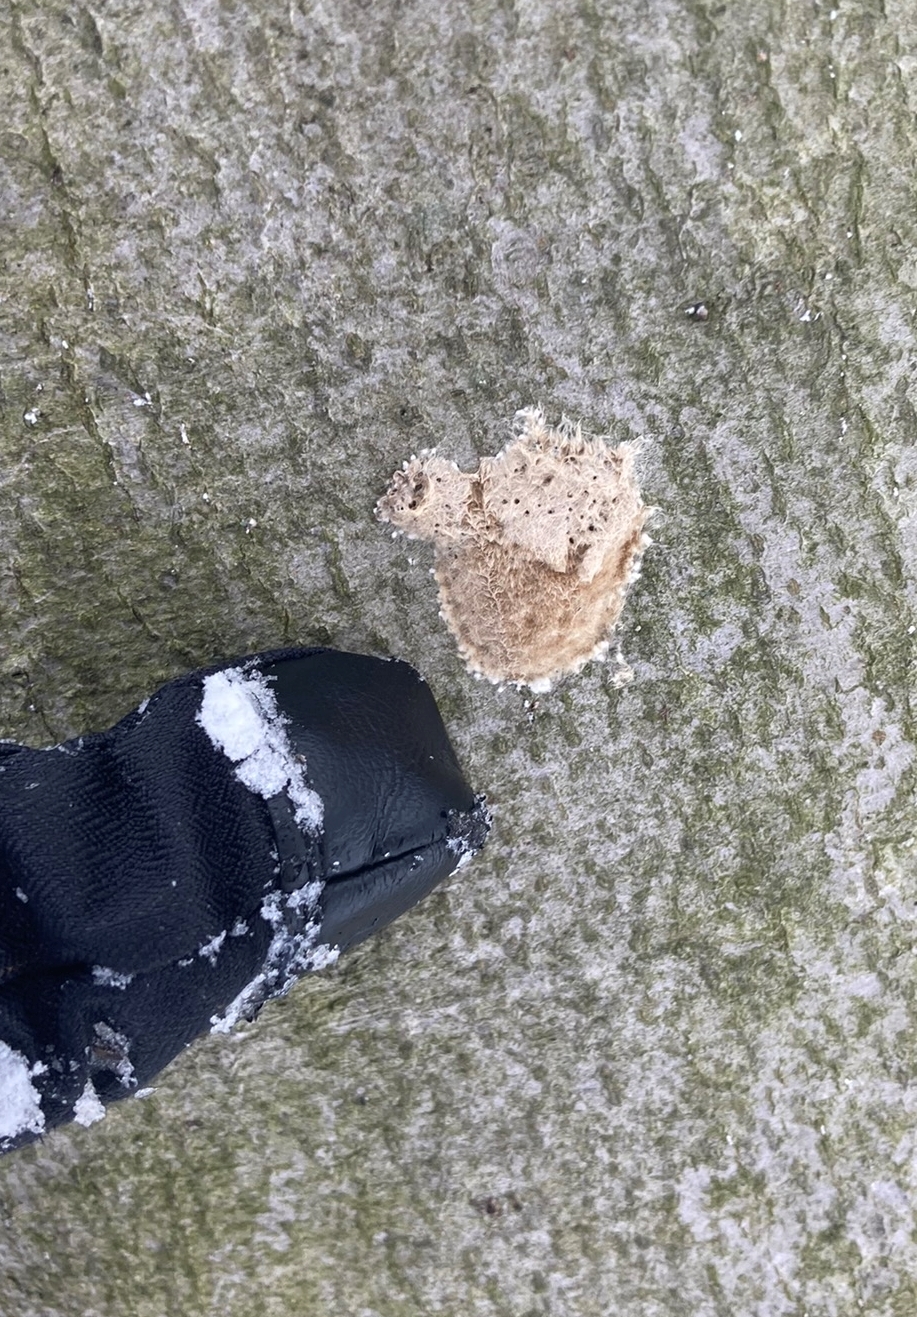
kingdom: Animalia
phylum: Arthropoda
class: Insecta
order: Lepidoptera
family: Erebidae
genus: Lymantria
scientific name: Lymantria dispar
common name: Gypsy moth
